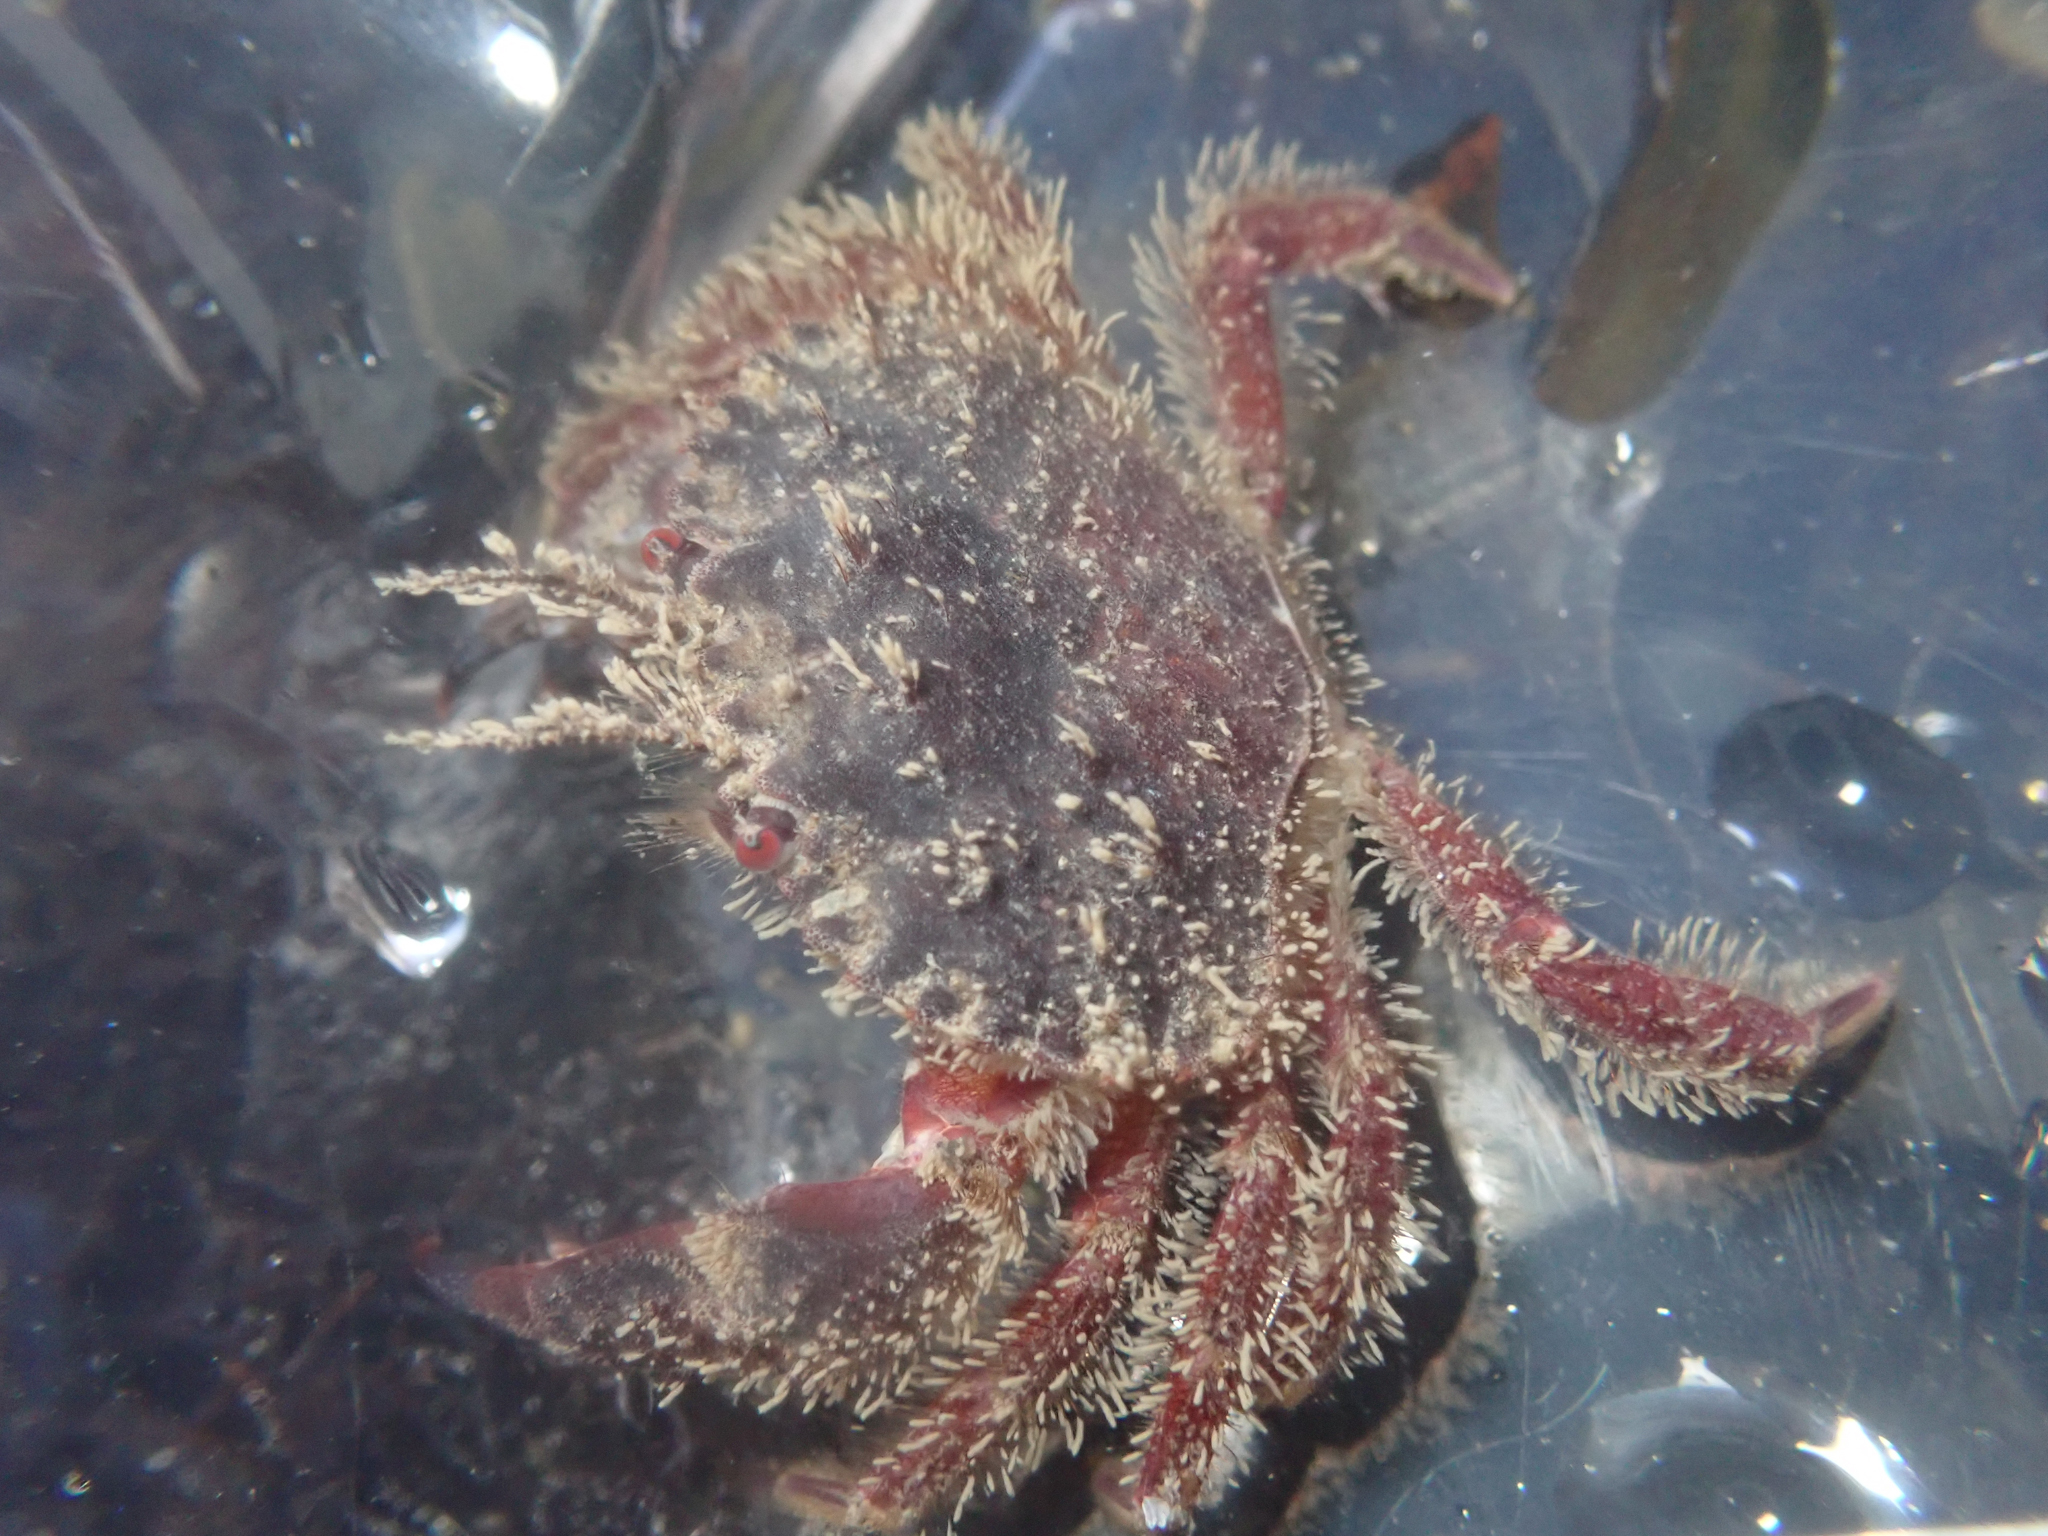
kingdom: Animalia
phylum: Arthropoda
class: Malacostraca
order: Decapoda
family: Cancridae
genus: Romaleon
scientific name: Romaleon antennarium
